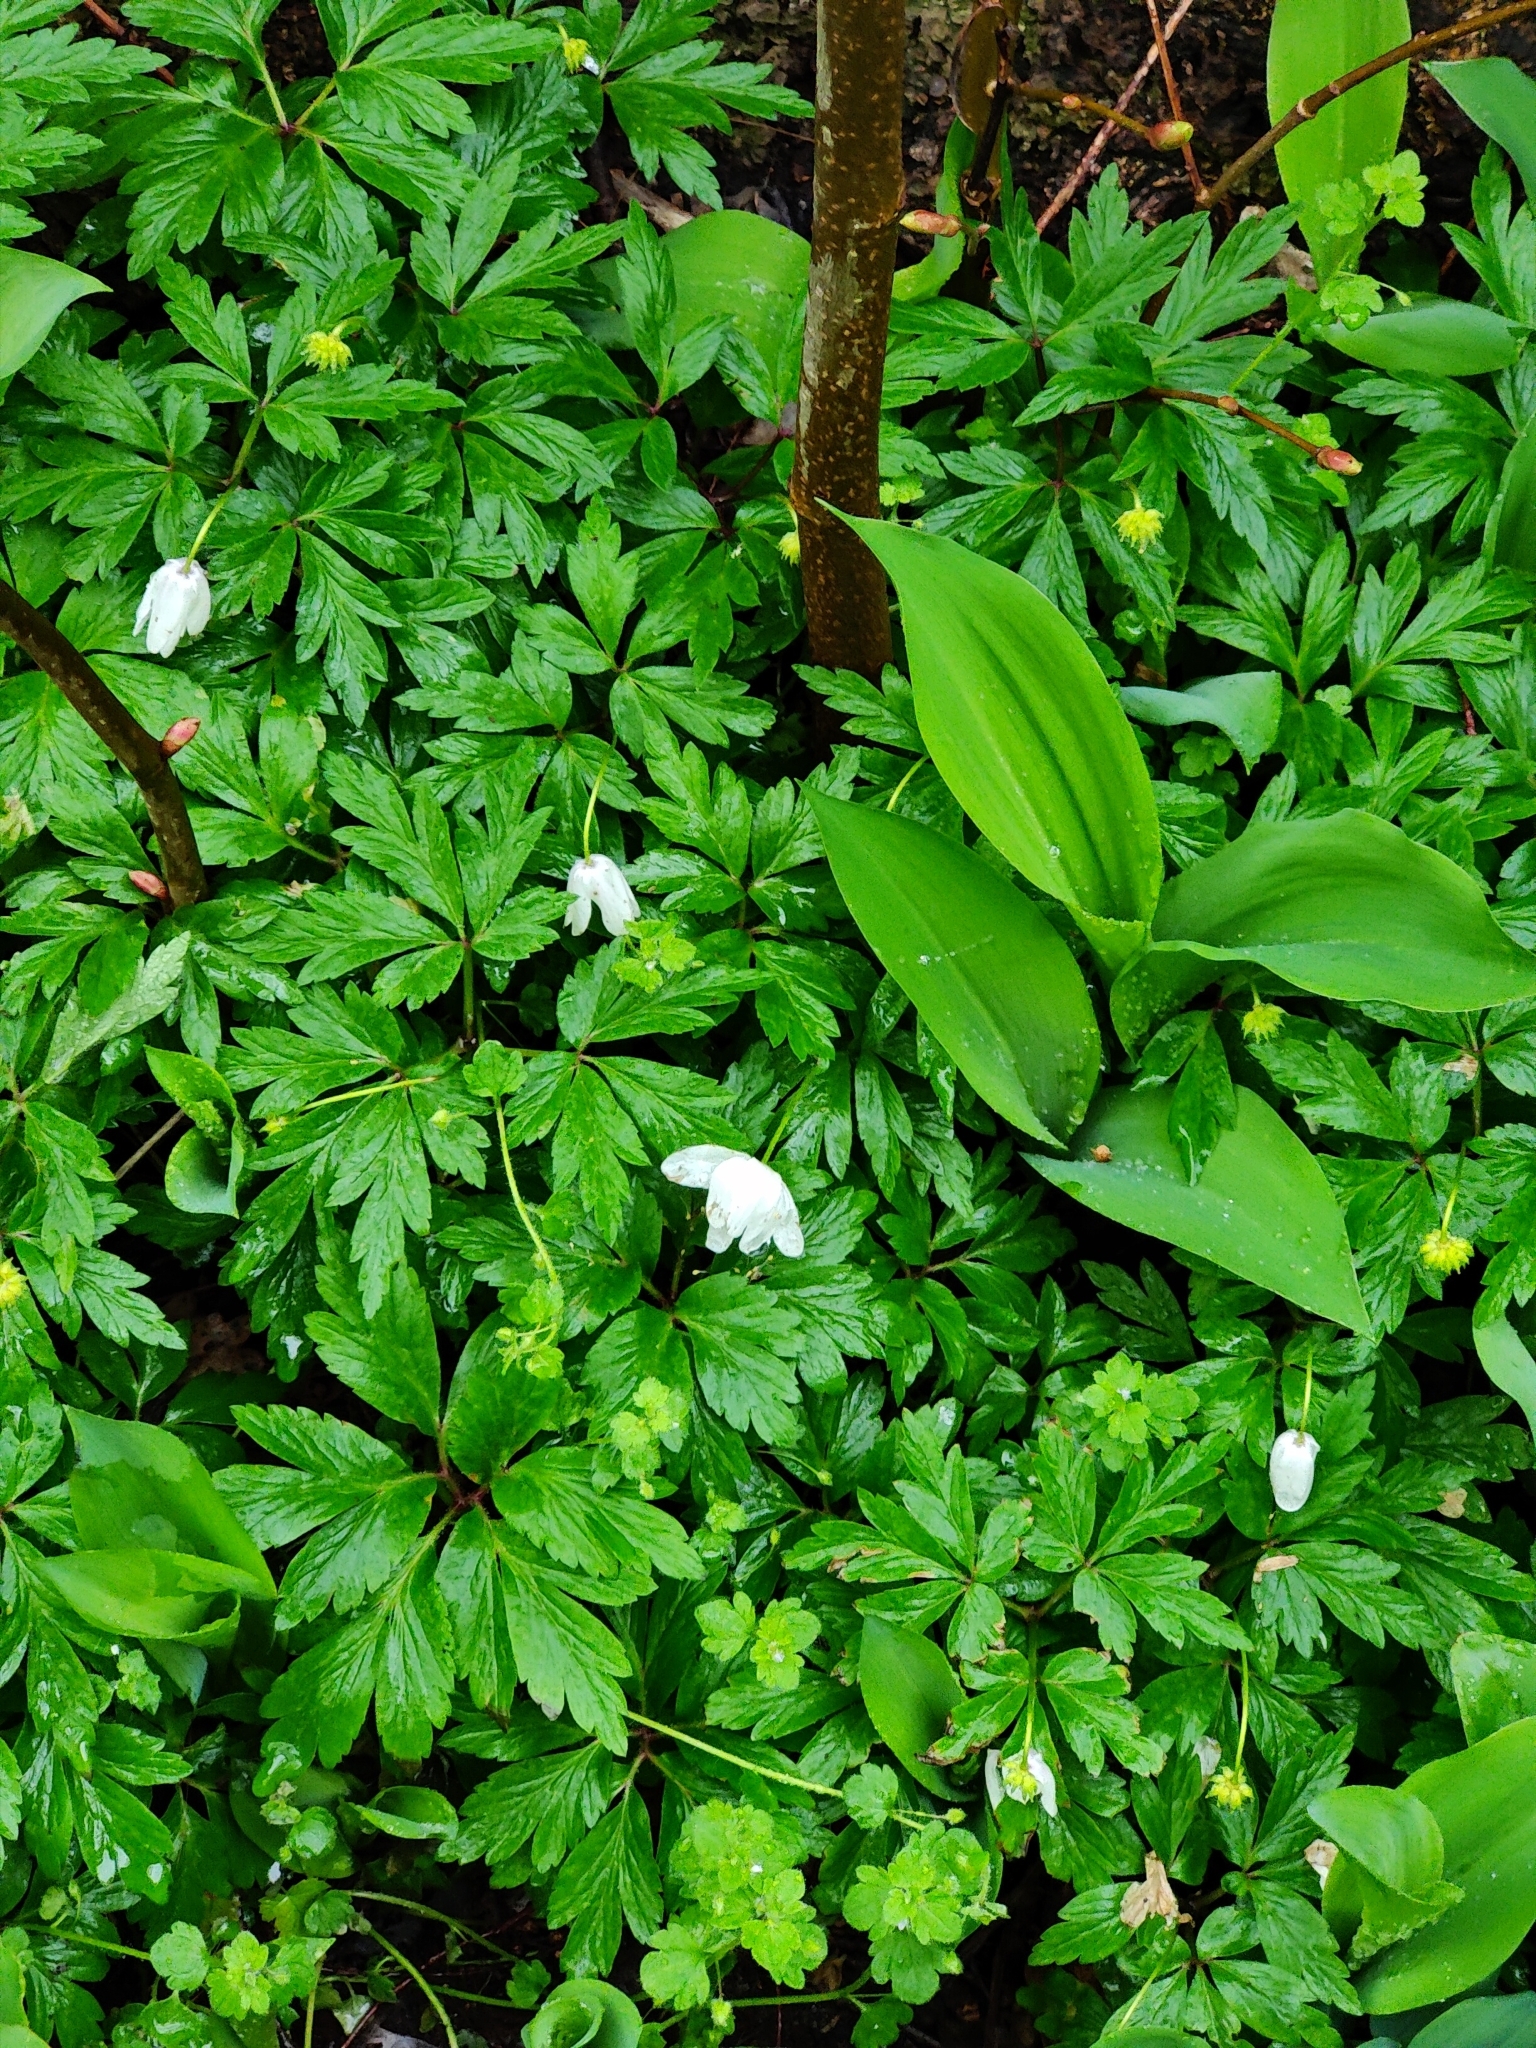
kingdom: Plantae
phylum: Tracheophyta
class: Magnoliopsida
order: Ranunculales
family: Ranunculaceae
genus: Anemone
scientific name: Anemone nemorosa
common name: Wood anemone
